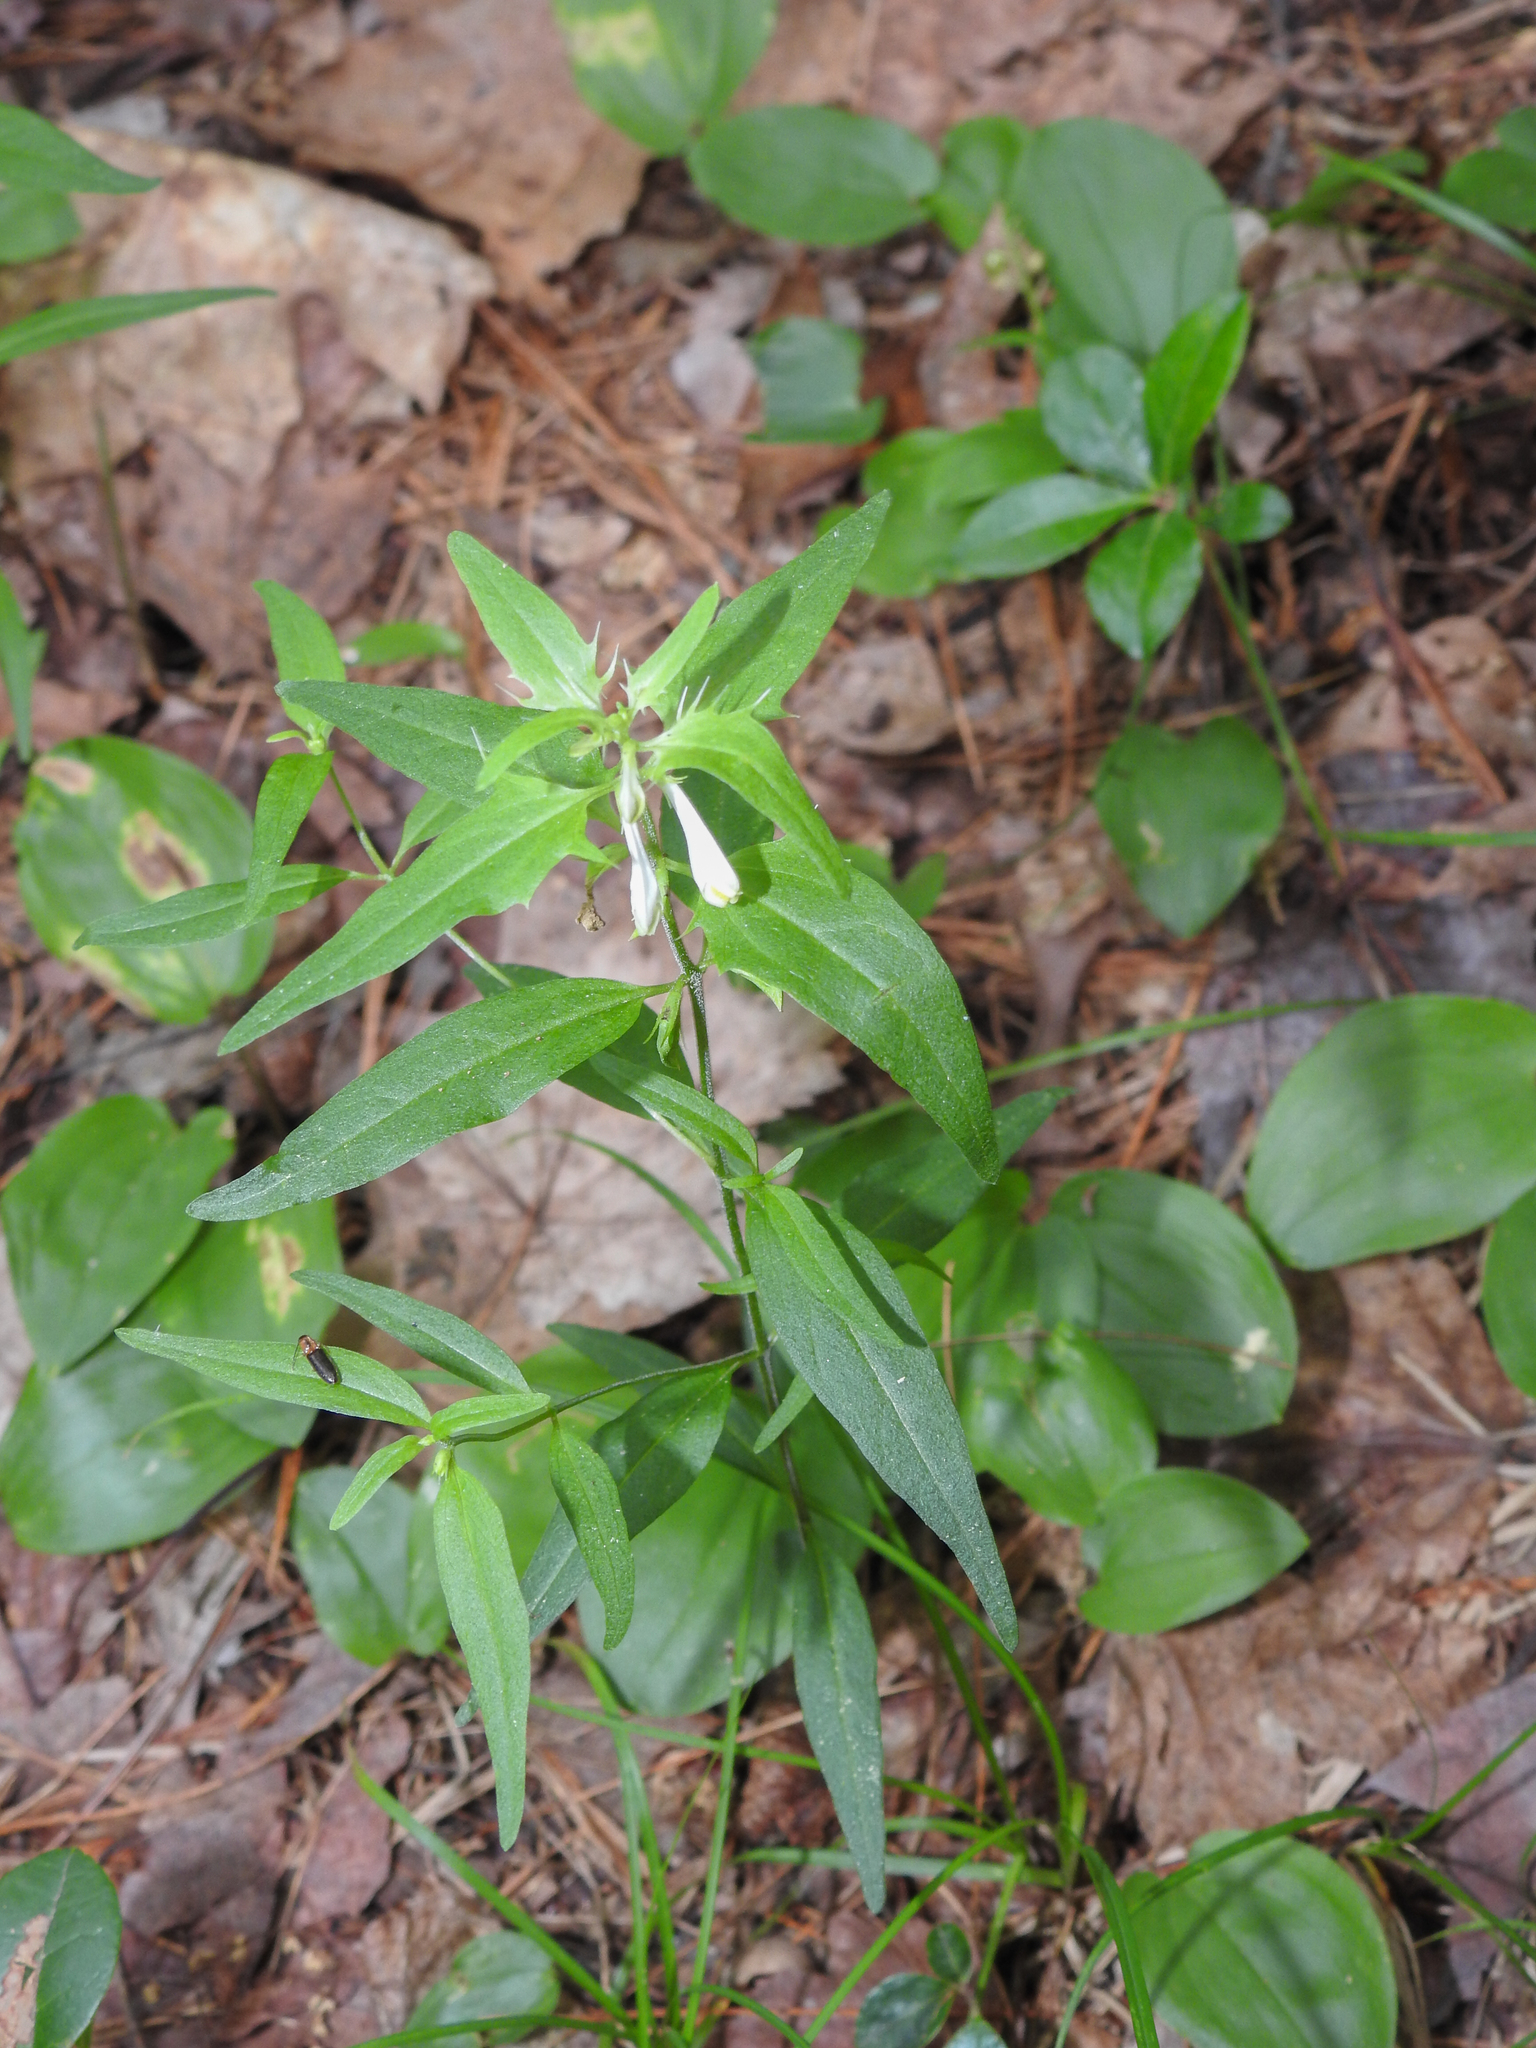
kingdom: Plantae
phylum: Tracheophyta
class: Magnoliopsida
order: Lamiales
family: Orobanchaceae
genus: Melampyrum
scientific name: Melampyrum lineare
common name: American cow-wheat
